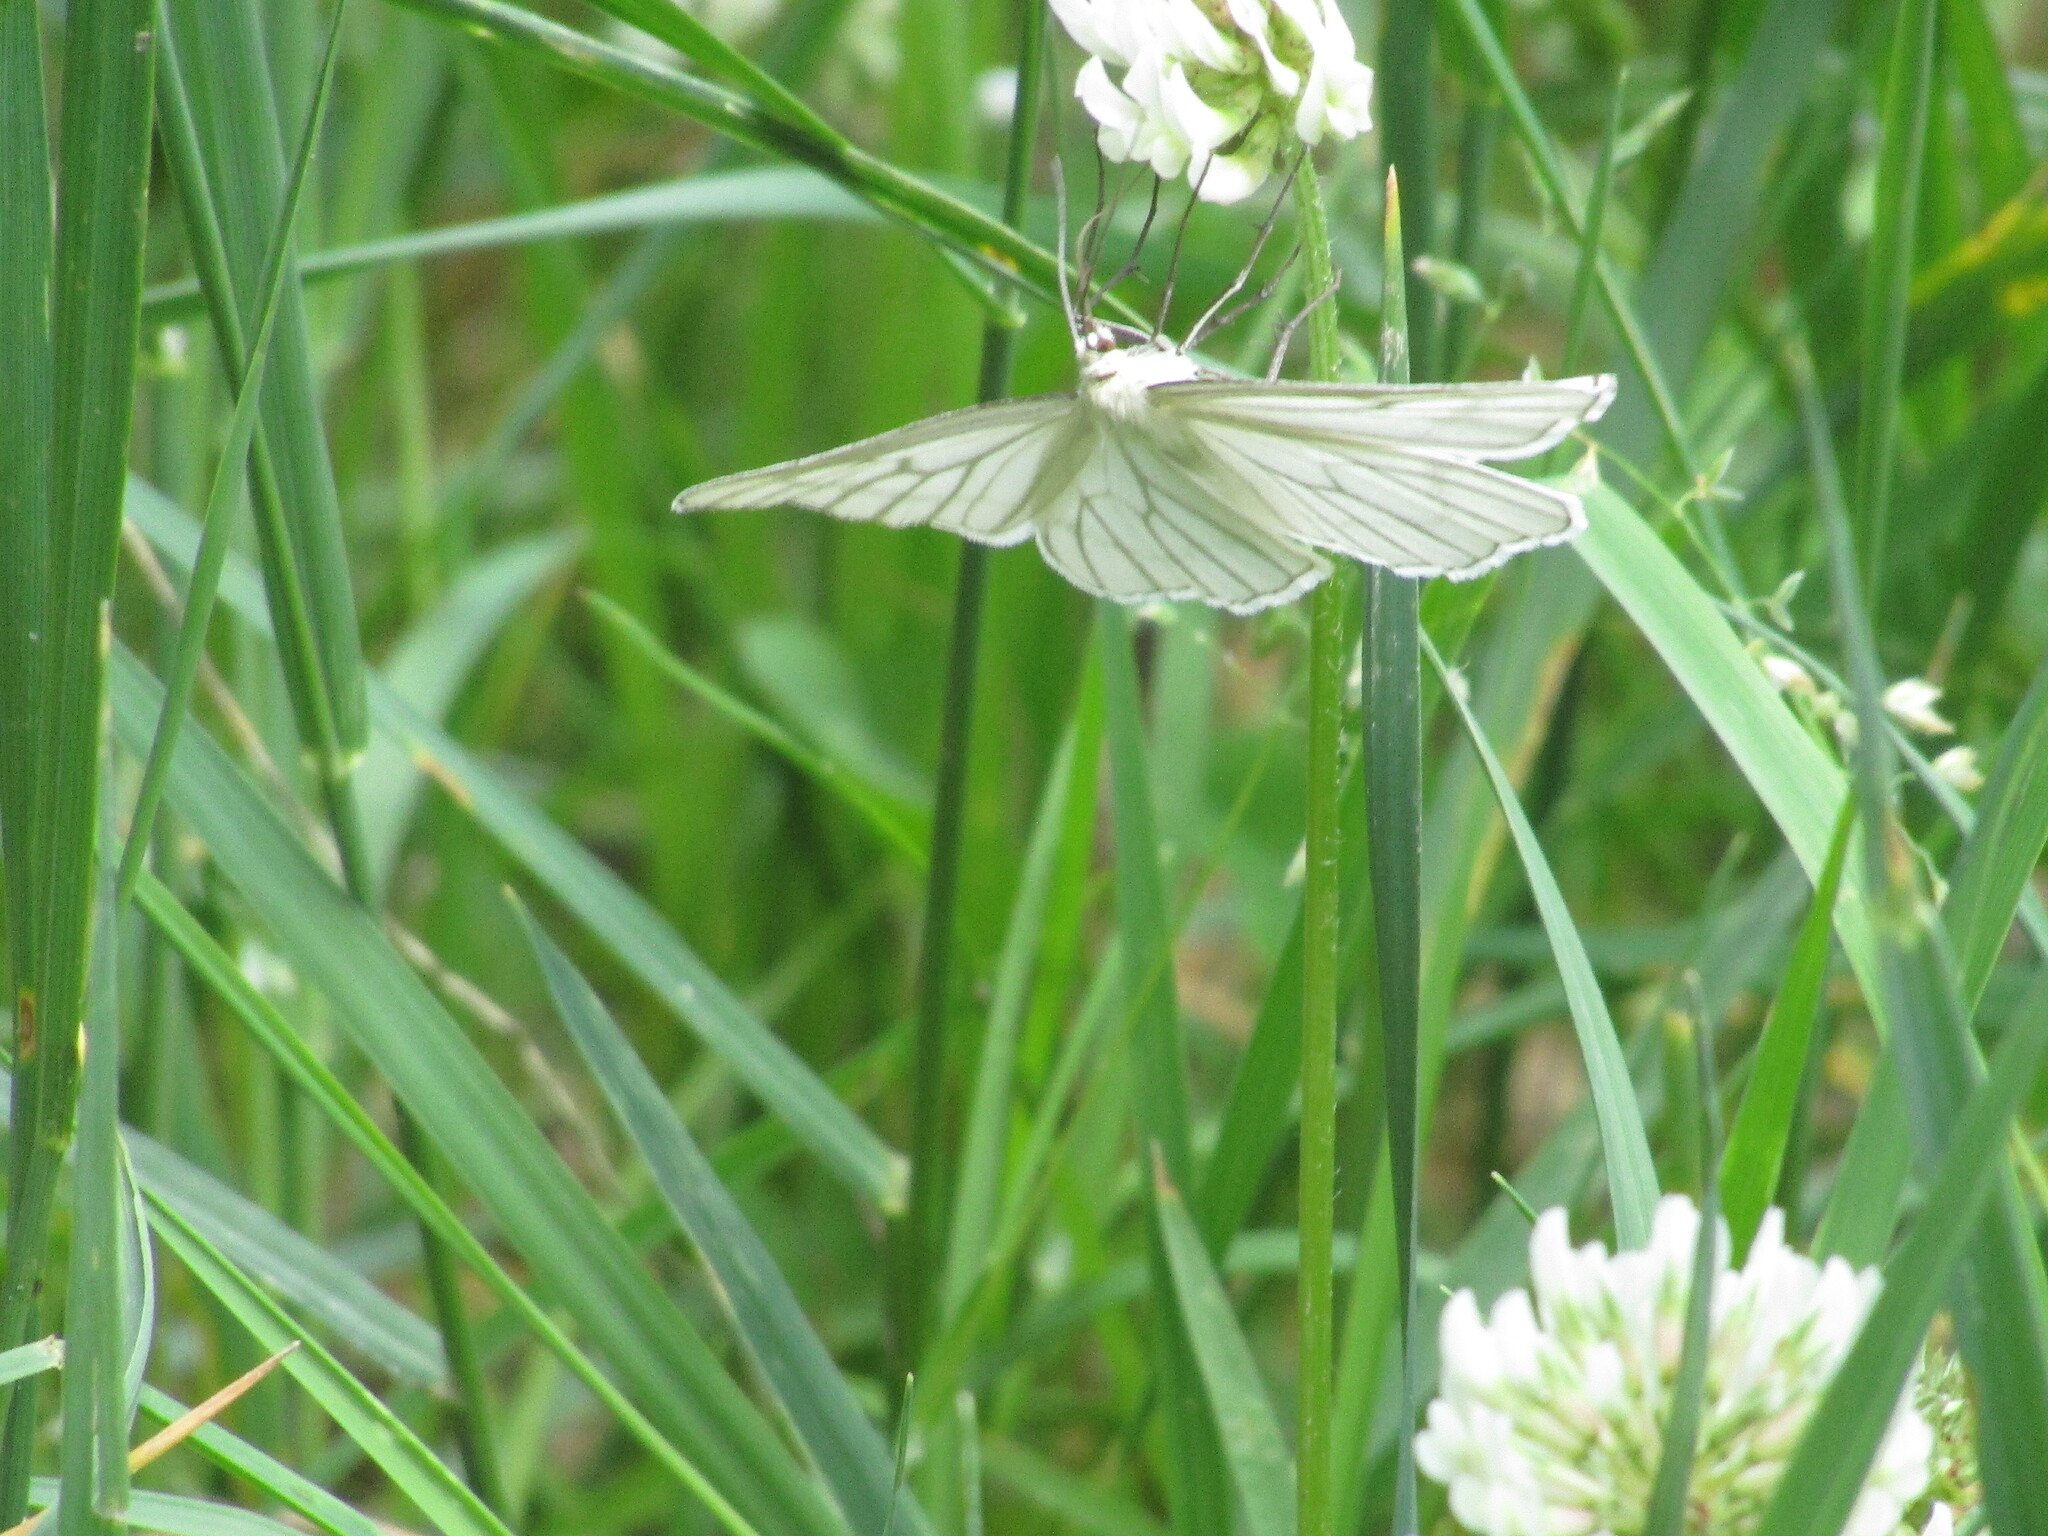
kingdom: Animalia
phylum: Arthropoda
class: Insecta
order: Lepidoptera
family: Geometridae
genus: Siona
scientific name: Siona lineata
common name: Black-veined moth
